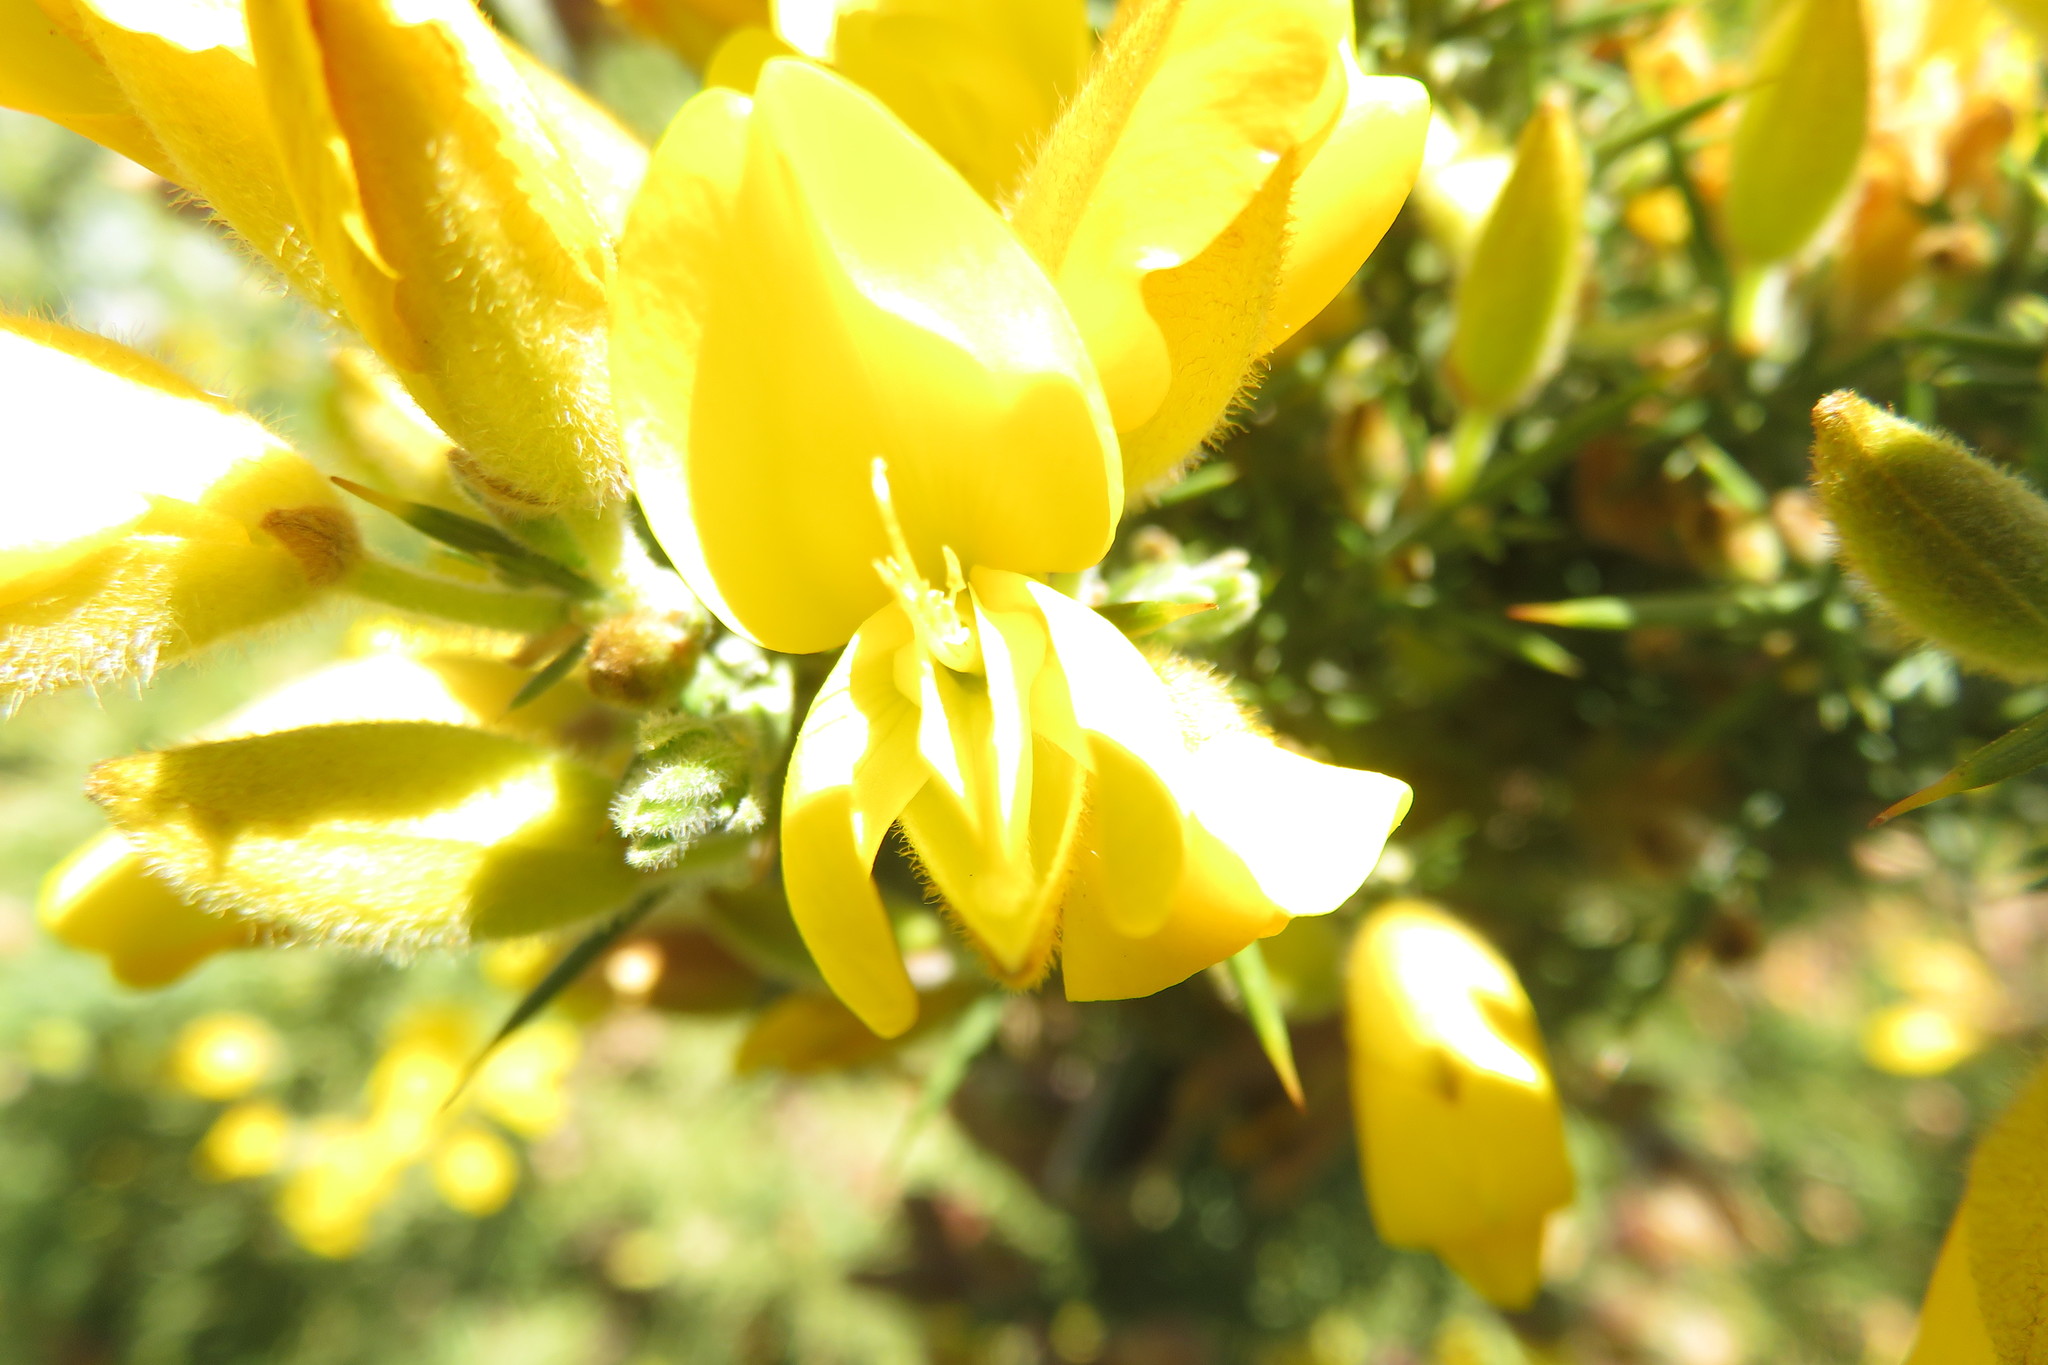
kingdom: Plantae
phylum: Tracheophyta
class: Magnoliopsida
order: Fabales
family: Fabaceae
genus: Ulex
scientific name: Ulex europaeus
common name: Common gorse
